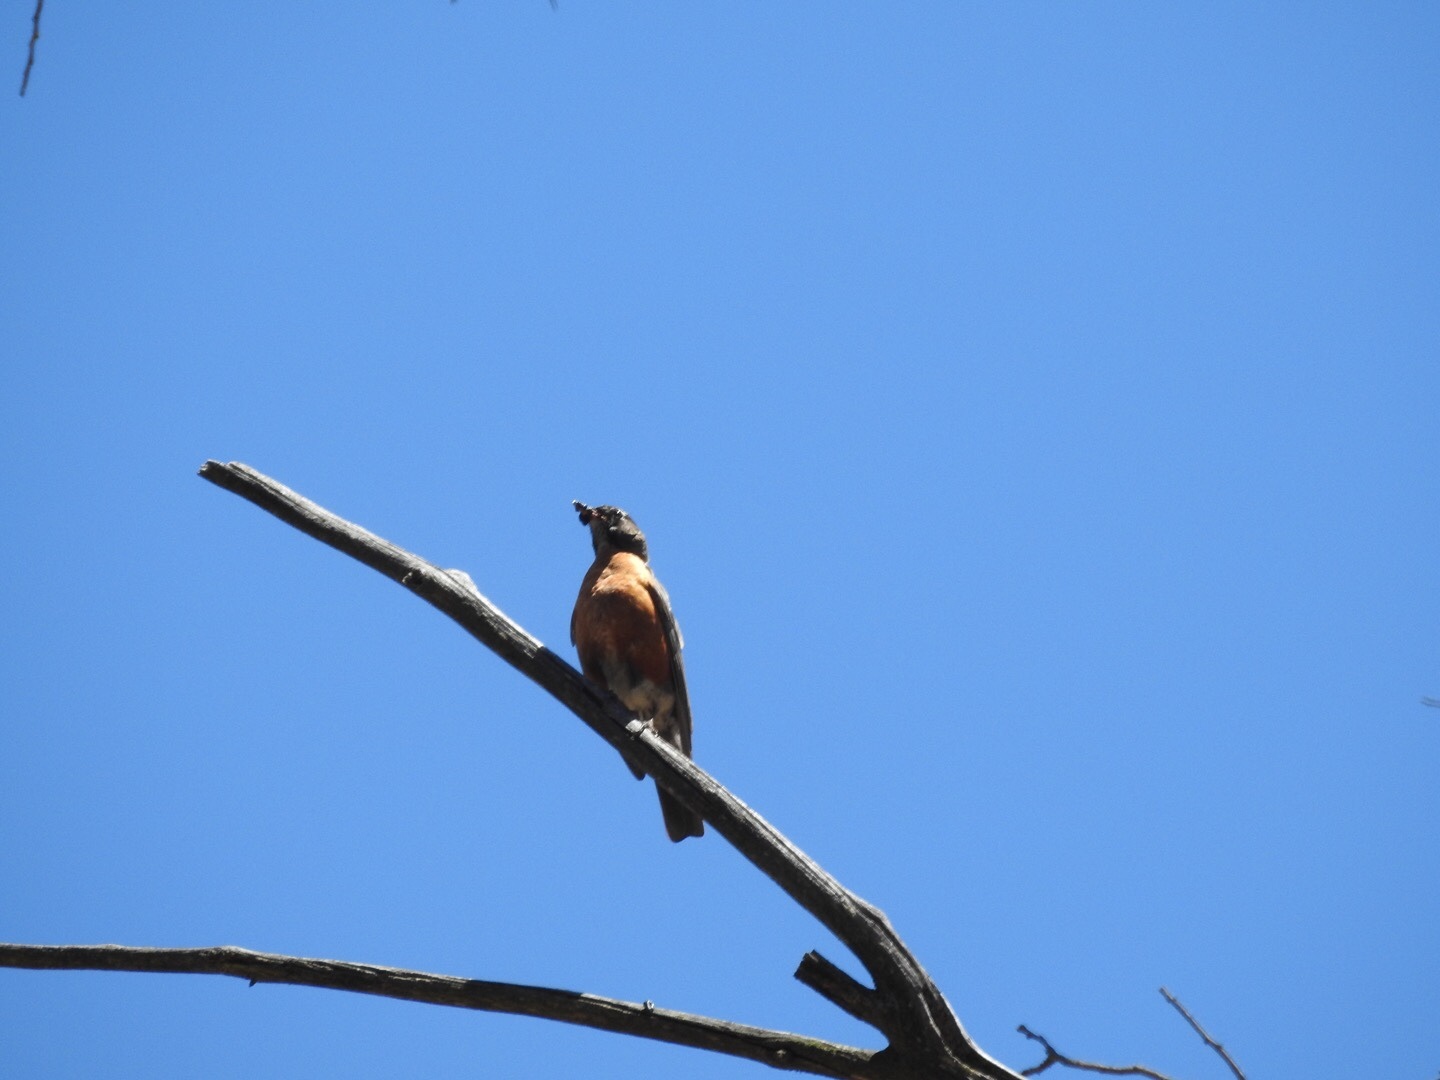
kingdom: Animalia
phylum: Chordata
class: Aves
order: Passeriformes
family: Turdidae
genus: Turdus
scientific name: Turdus migratorius
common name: American robin
